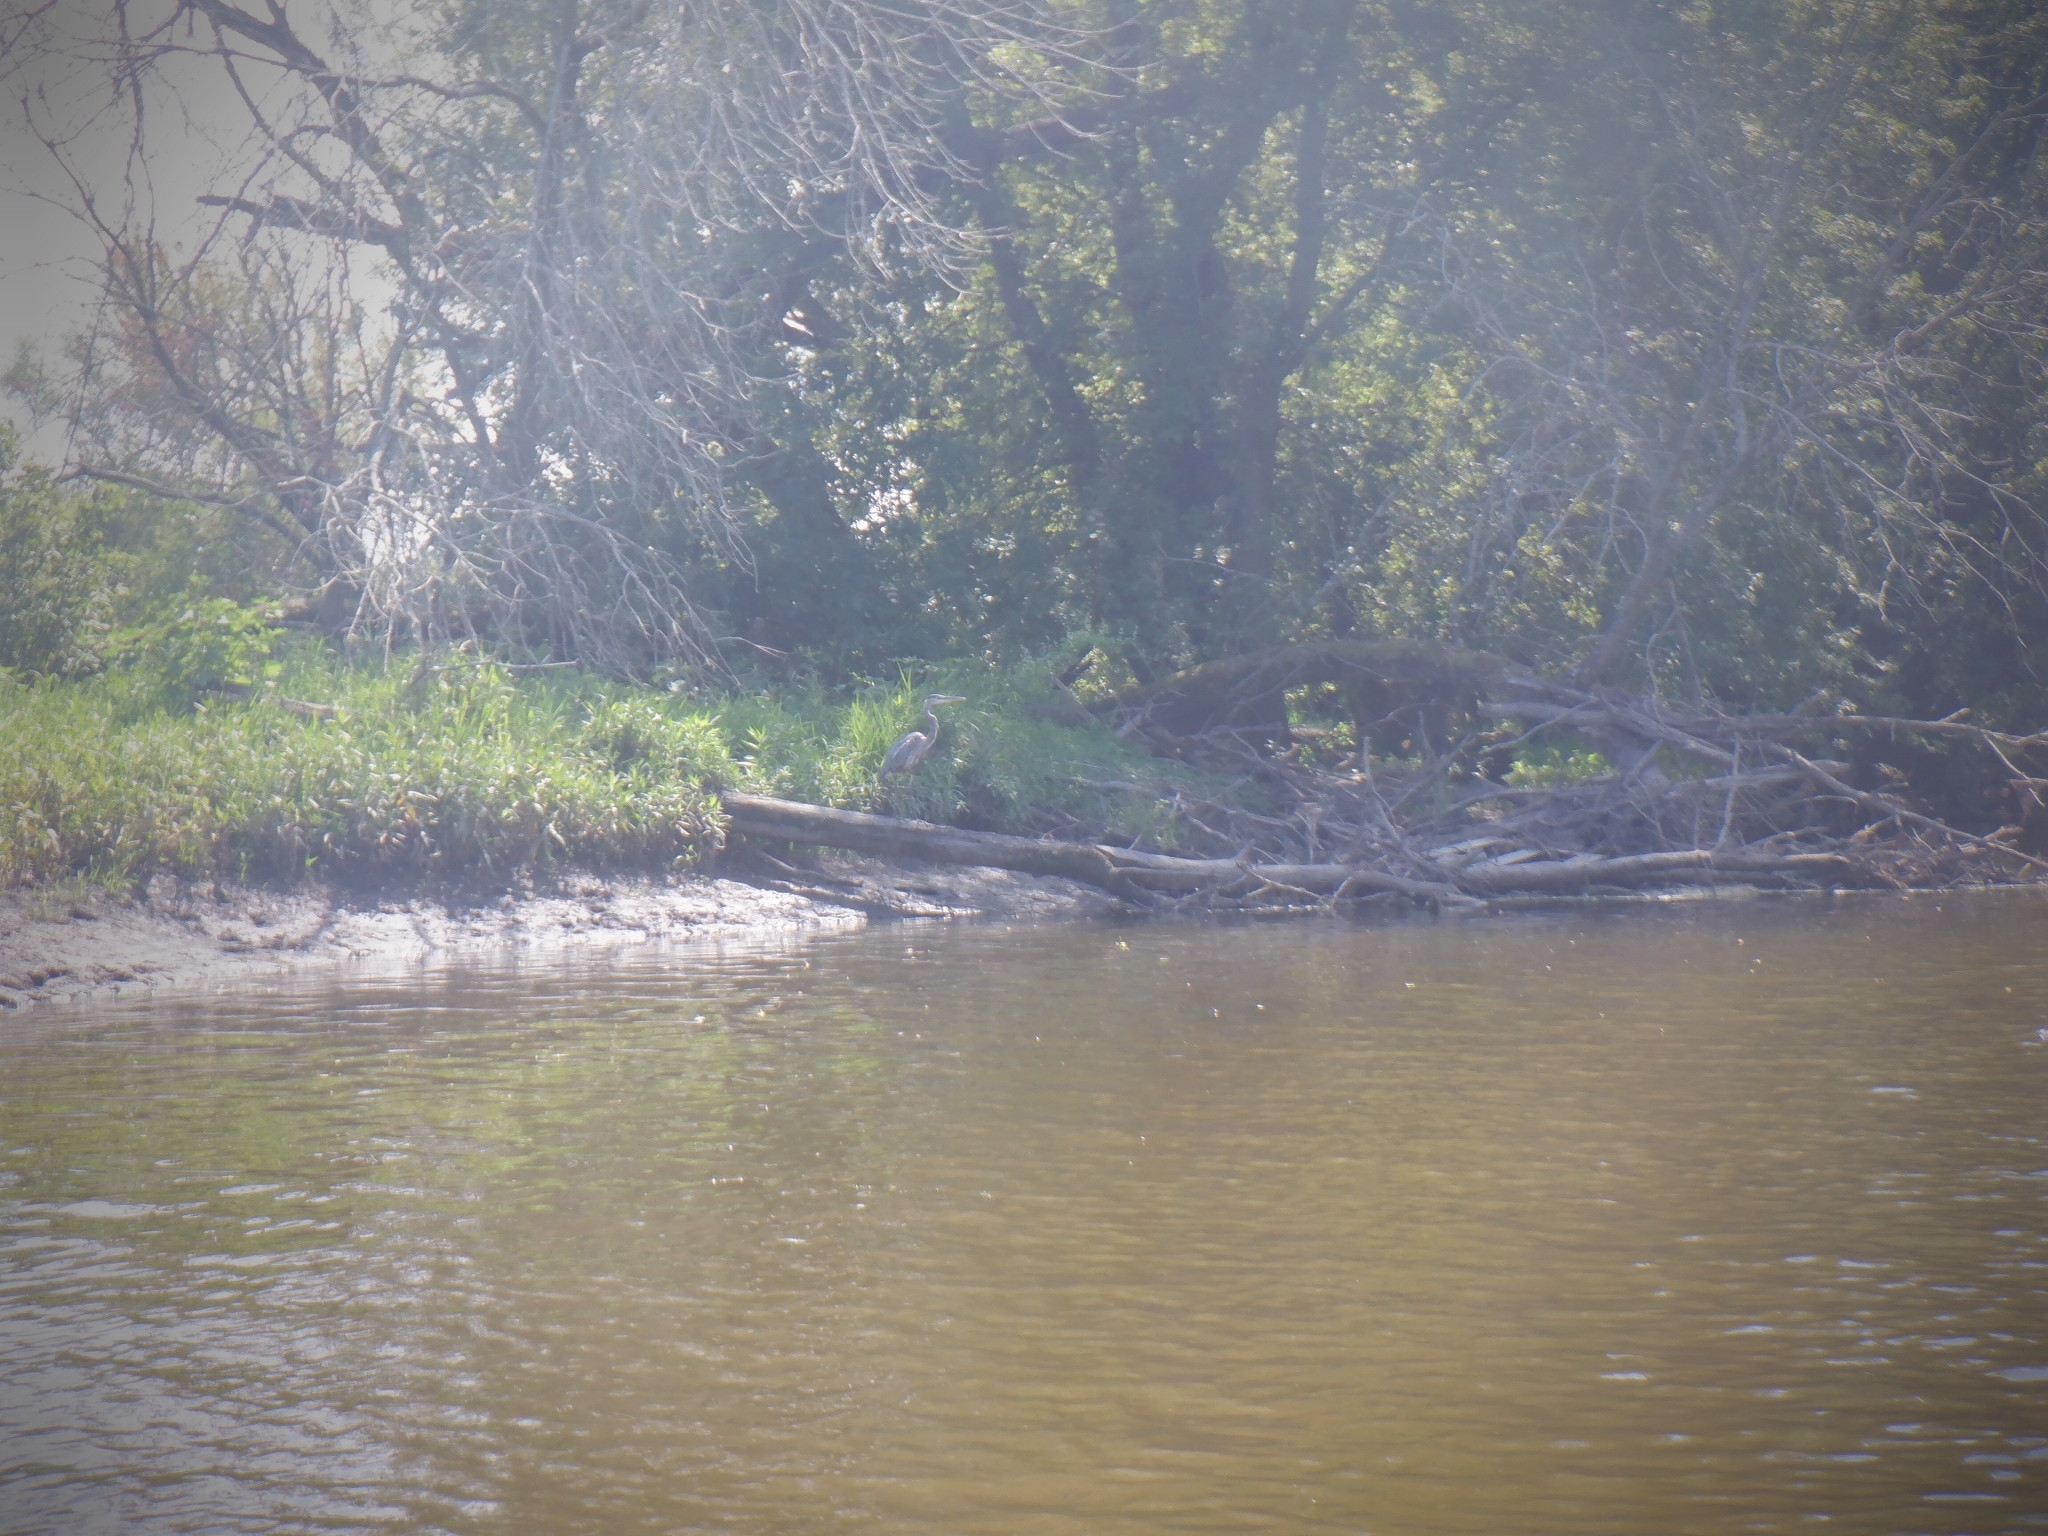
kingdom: Animalia
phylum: Chordata
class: Aves
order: Pelecaniformes
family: Ardeidae
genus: Ardea
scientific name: Ardea herodias
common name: Great blue heron
